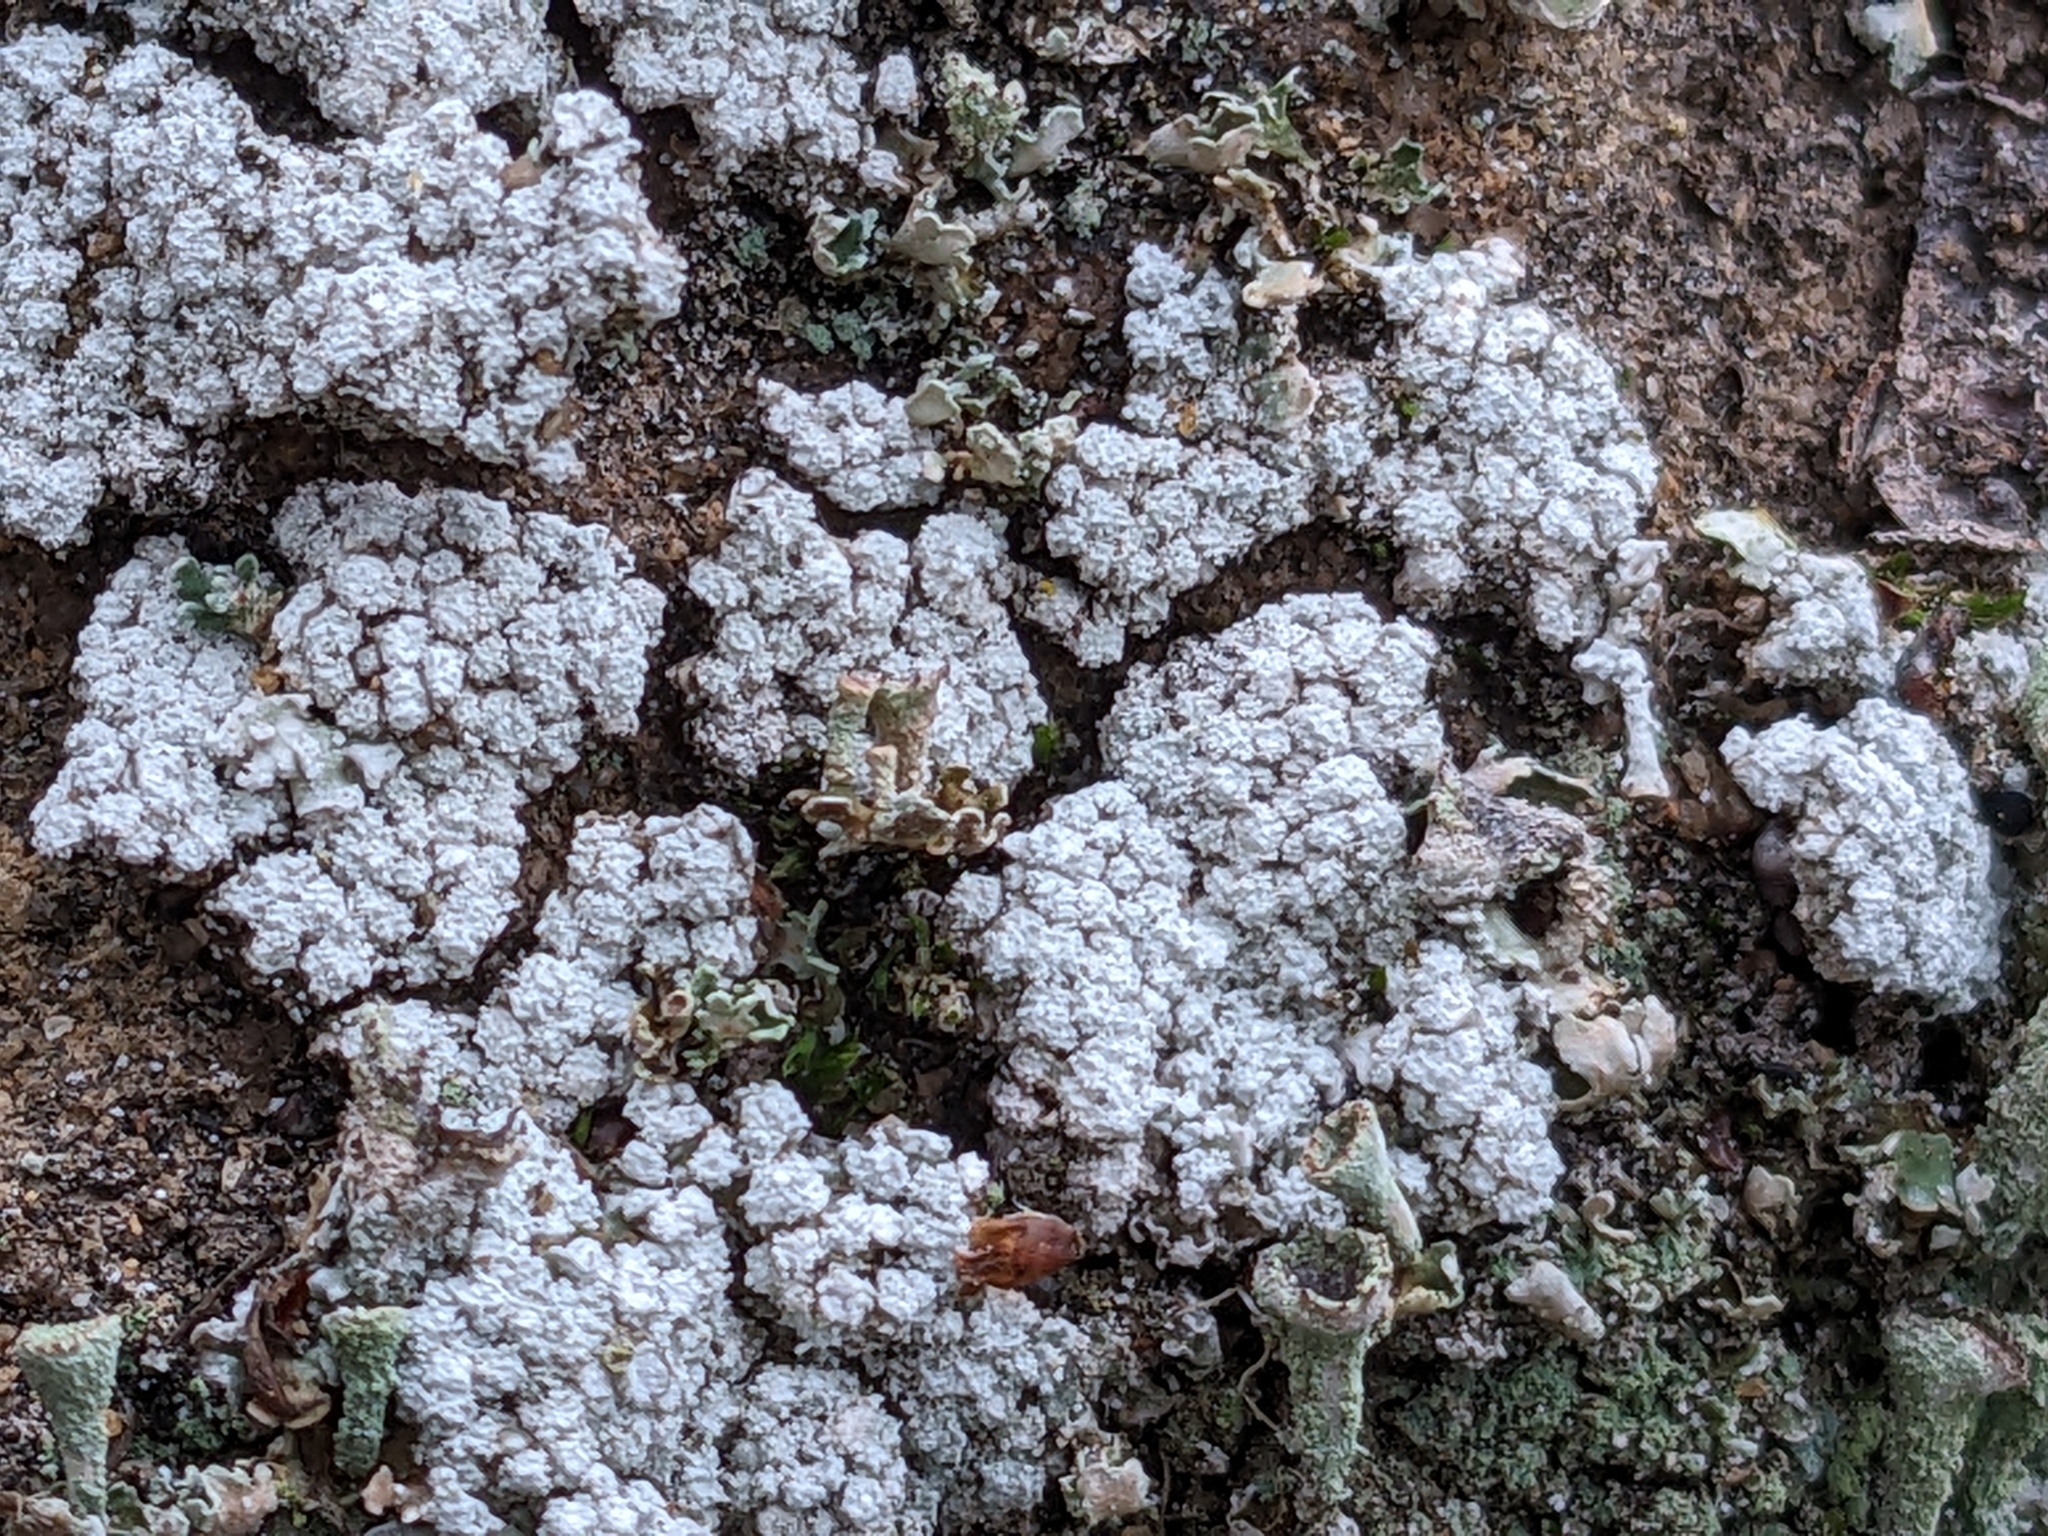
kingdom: Fungi
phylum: Ascomycota
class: Lecanoromycetes
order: Pertusariales
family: Pertusariaceae
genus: Lepra
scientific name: Lepra amara
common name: Bitter wart lichen
